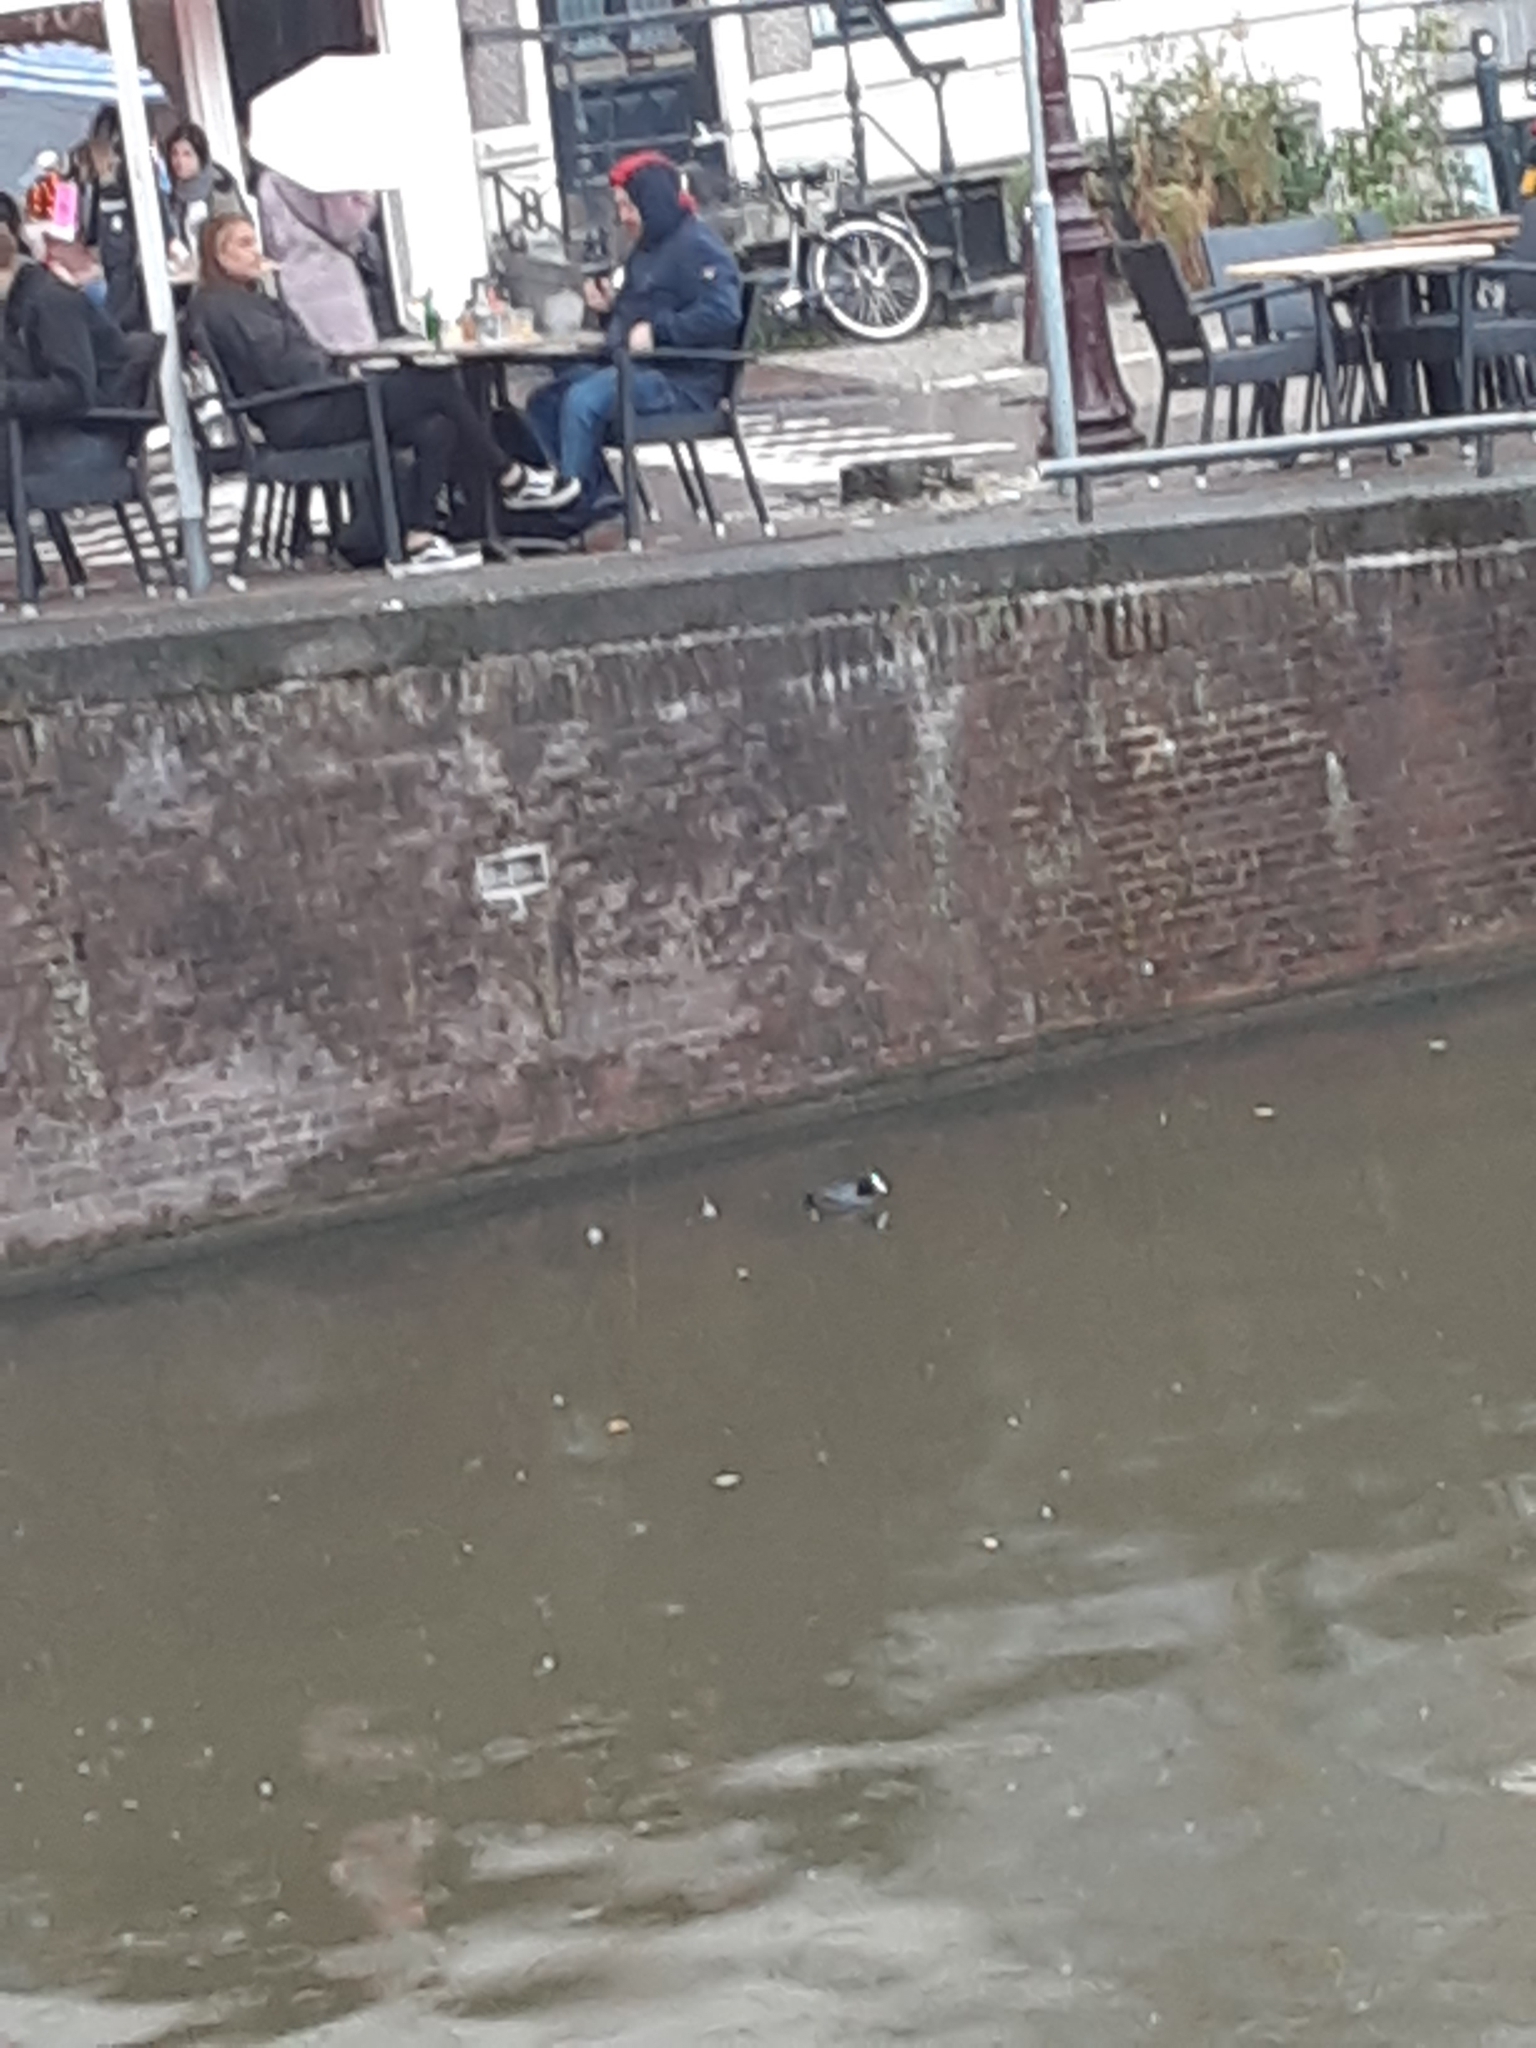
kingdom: Animalia
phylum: Chordata
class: Aves
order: Gruiformes
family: Rallidae
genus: Fulica
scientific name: Fulica atra
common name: Eurasian coot
